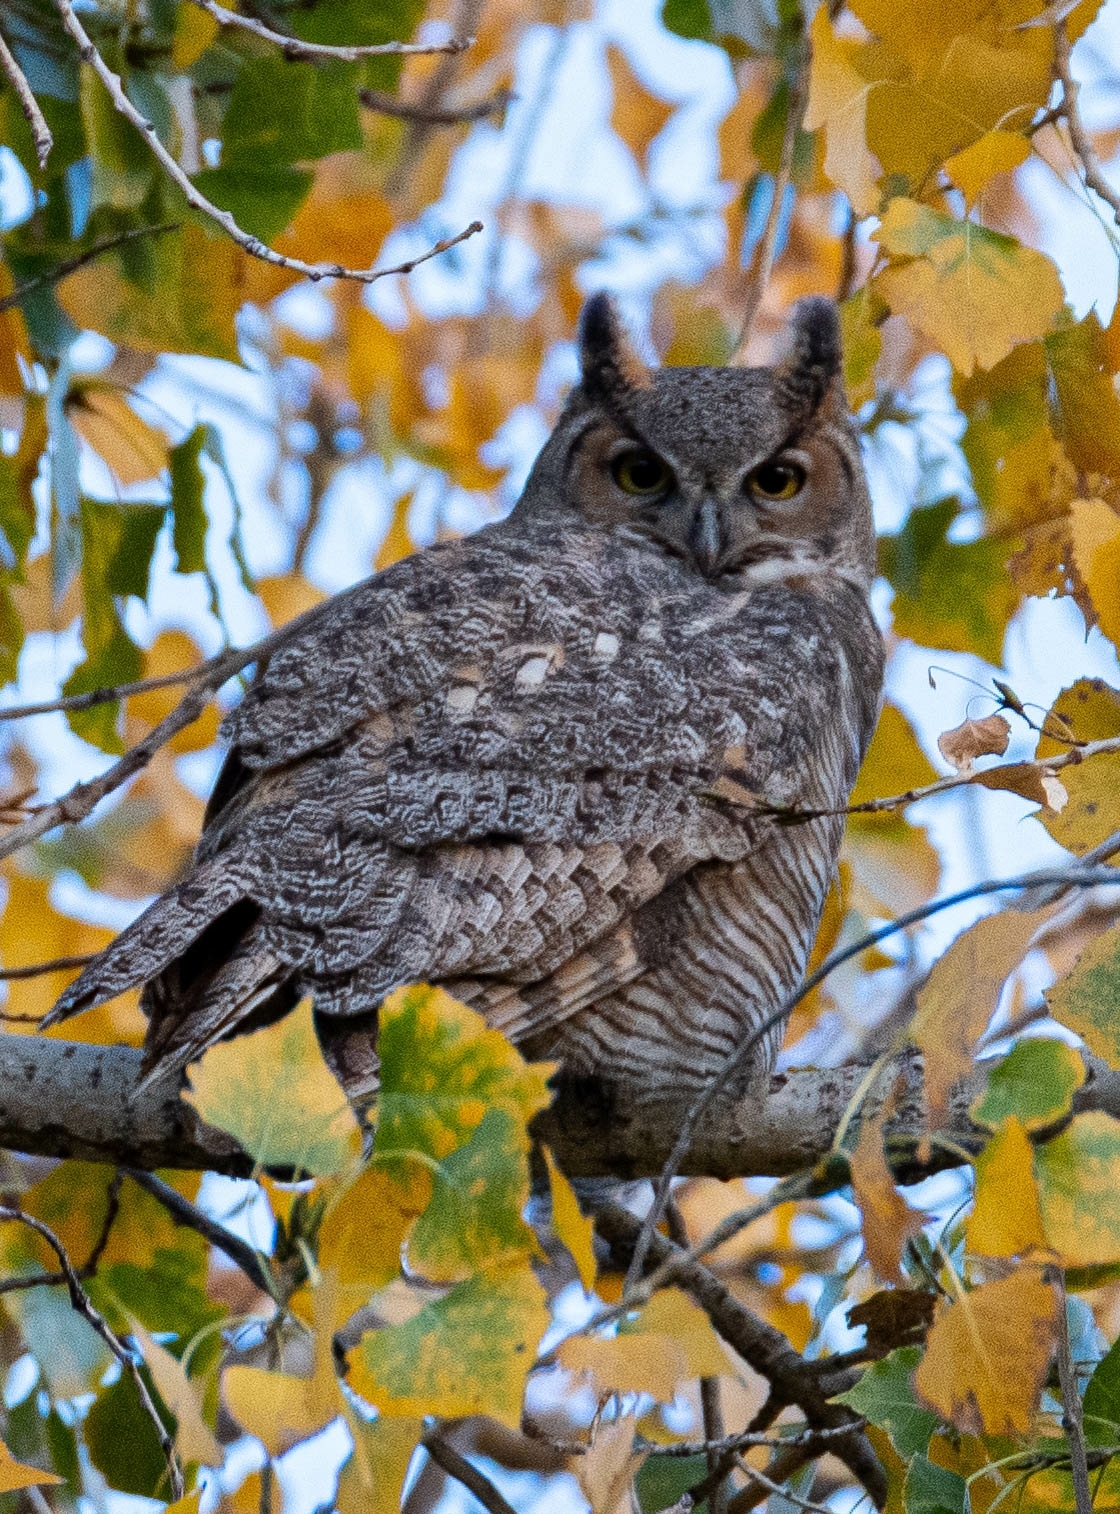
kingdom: Animalia
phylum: Chordata
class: Aves
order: Strigiformes
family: Strigidae
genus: Bubo
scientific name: Bubo virginianus
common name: Great horned owl
